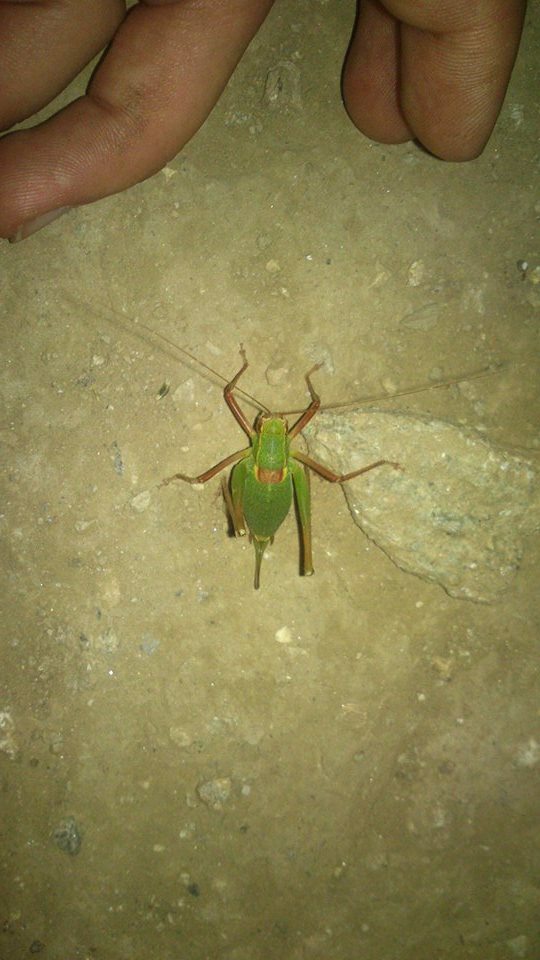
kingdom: Animalia
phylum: Arthropoda
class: Insecta
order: Orthoptera
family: Tettigoniidae
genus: Barbitistes
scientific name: Barbitistes serricauda
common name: Saw-tailed bush-cricket
